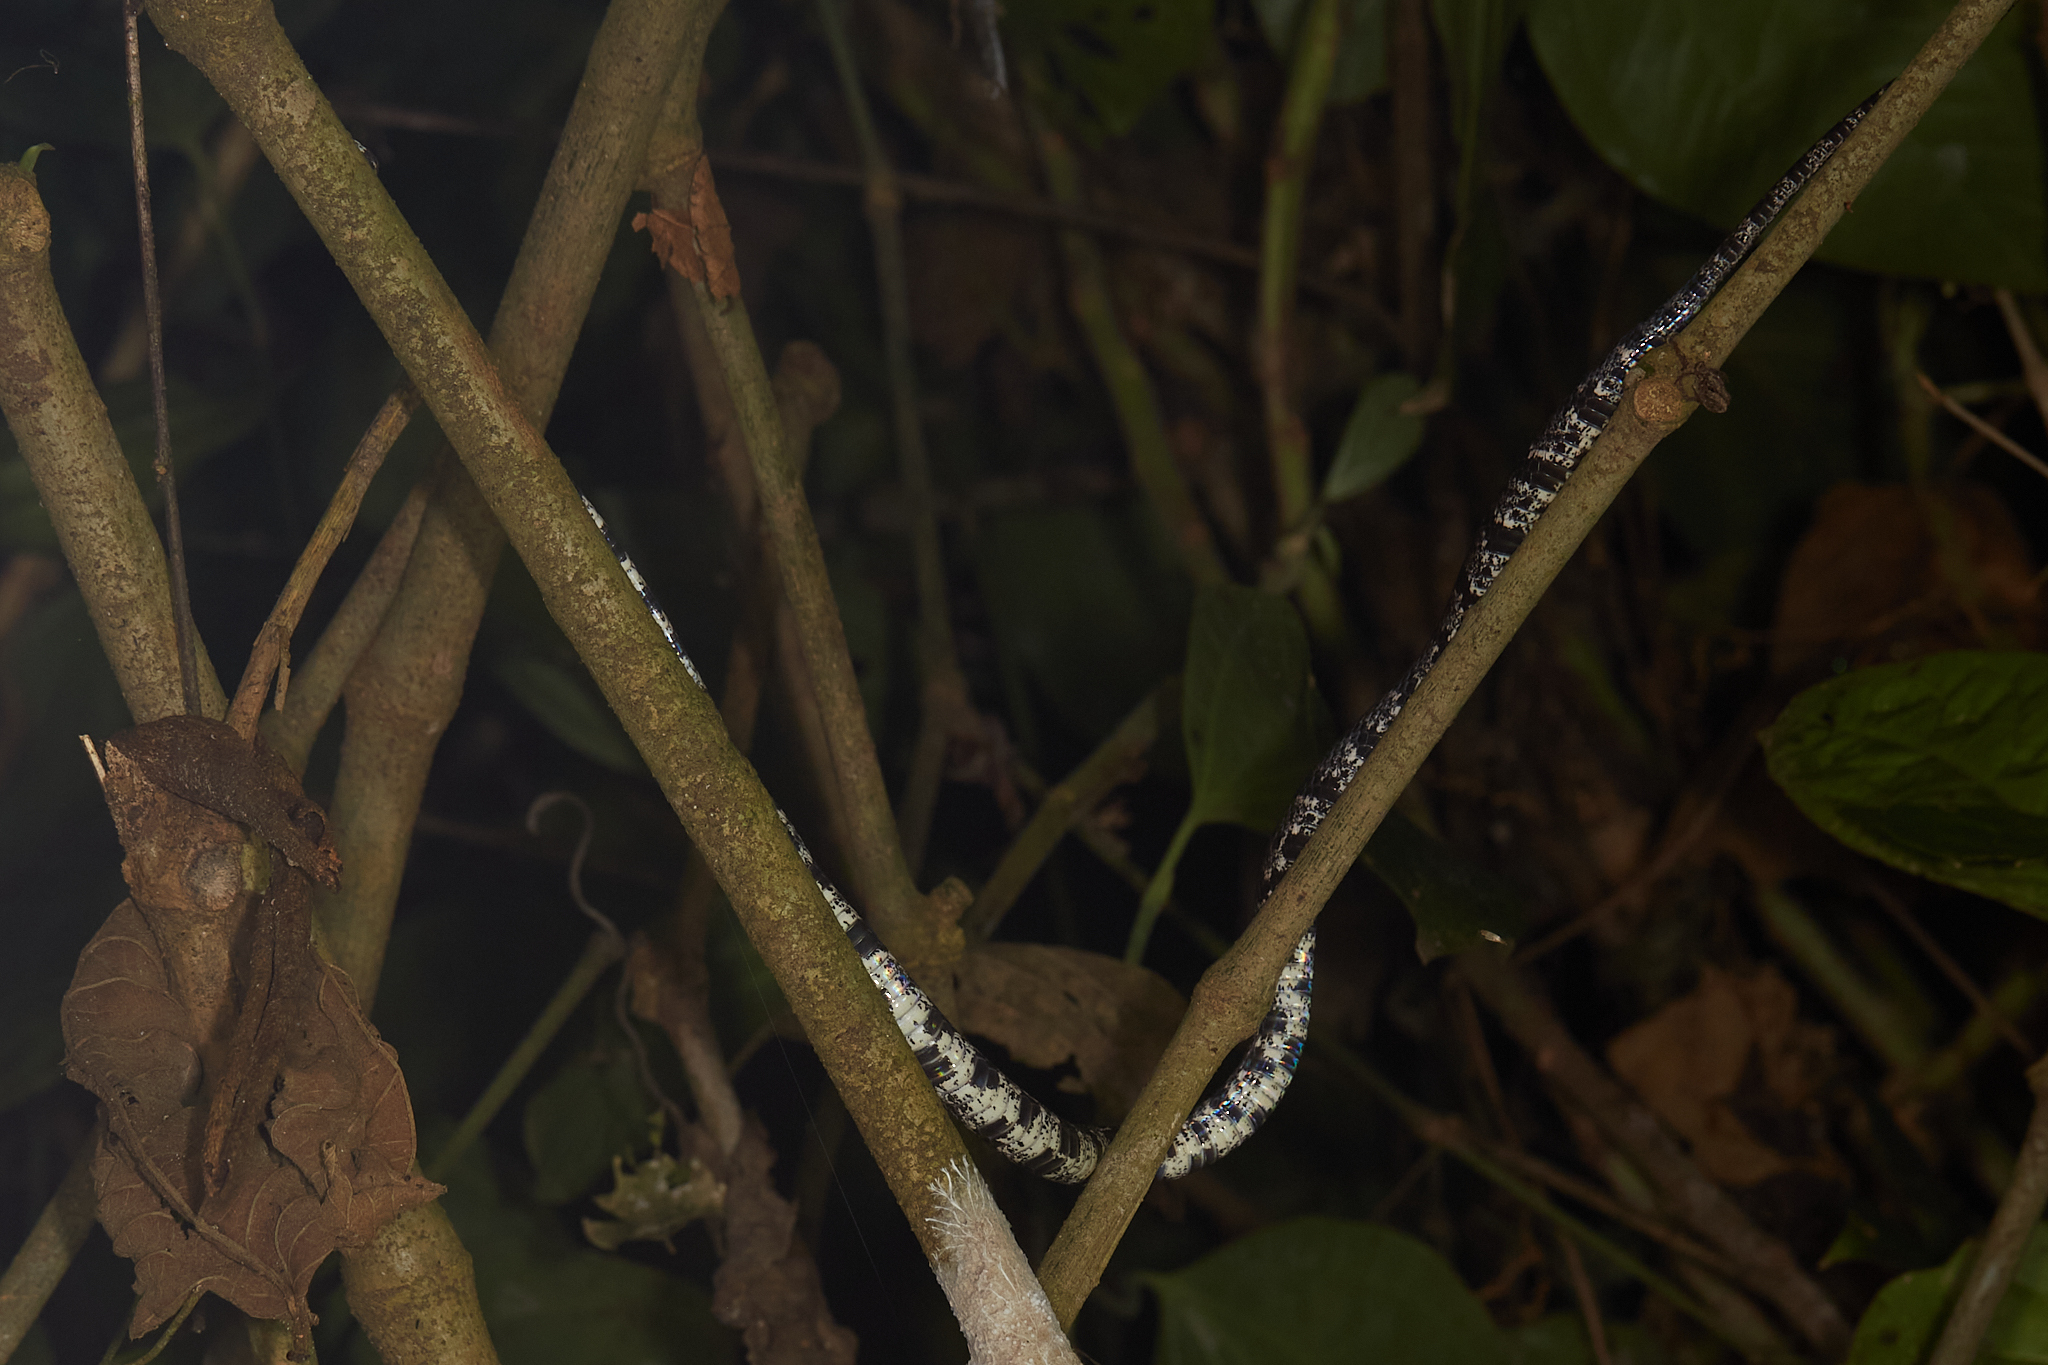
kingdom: Animalia
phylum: Chordata
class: Squamata
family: Colubridae
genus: Sibon
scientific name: Sibon nebulatus
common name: Cloudy snail-eating snake
